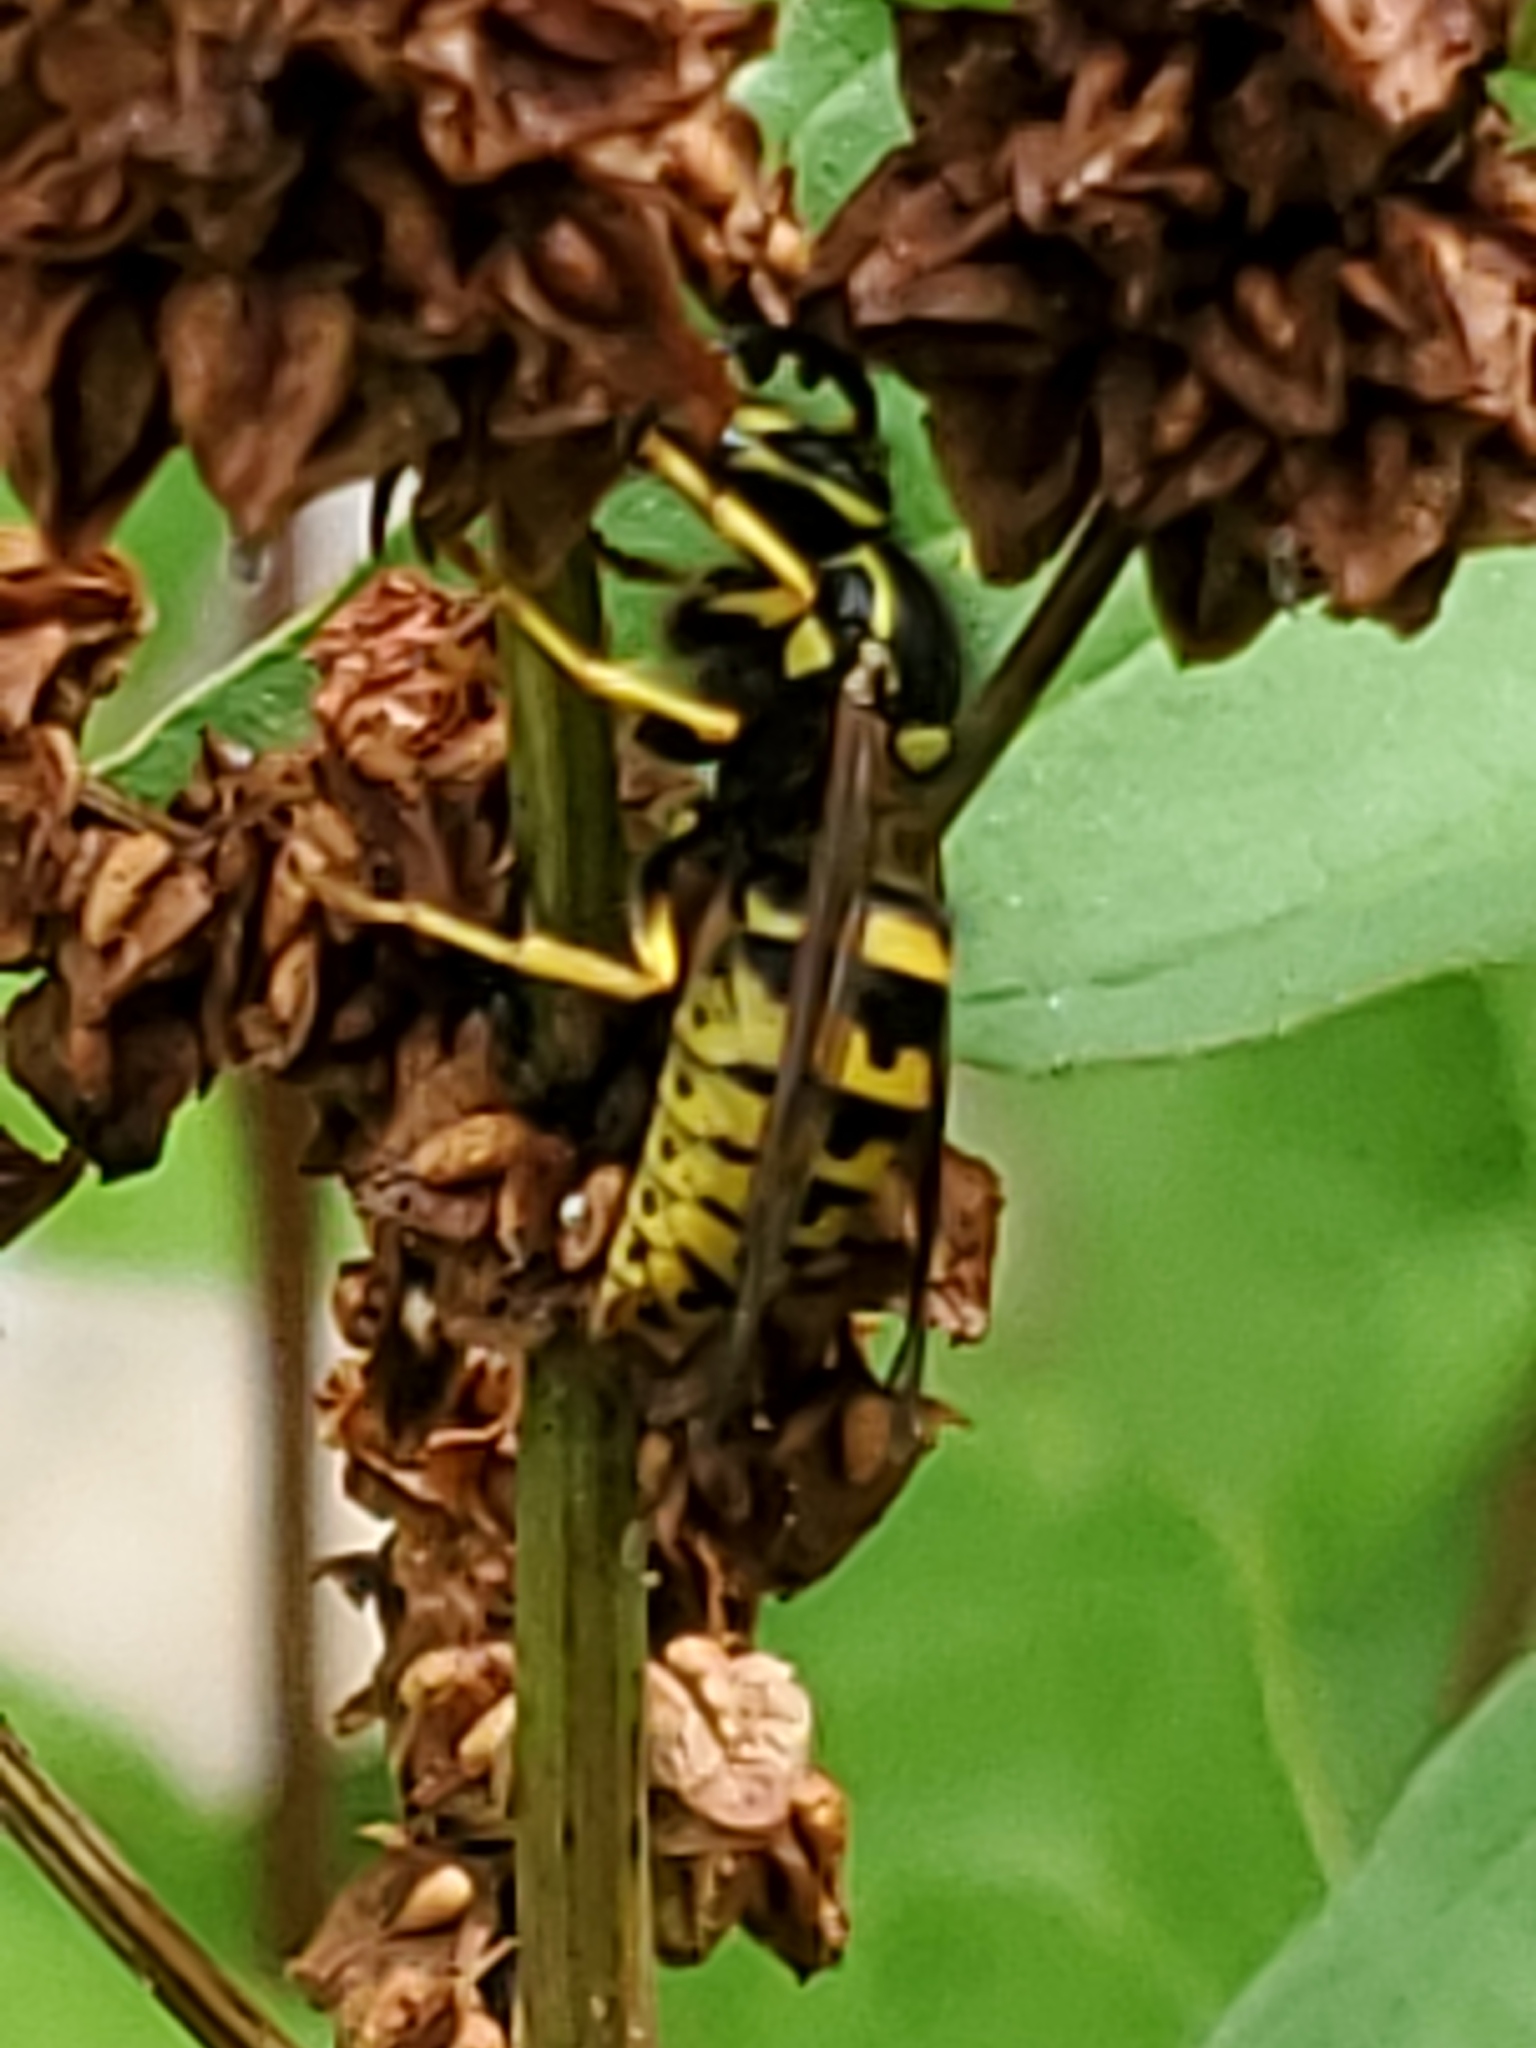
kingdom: Animalia
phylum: Arthropoda
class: Insecta
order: Hymenoptera
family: Vespidae
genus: Dolichovespula
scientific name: Dolichovespula arenaria
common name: Aerial yellowjacket
